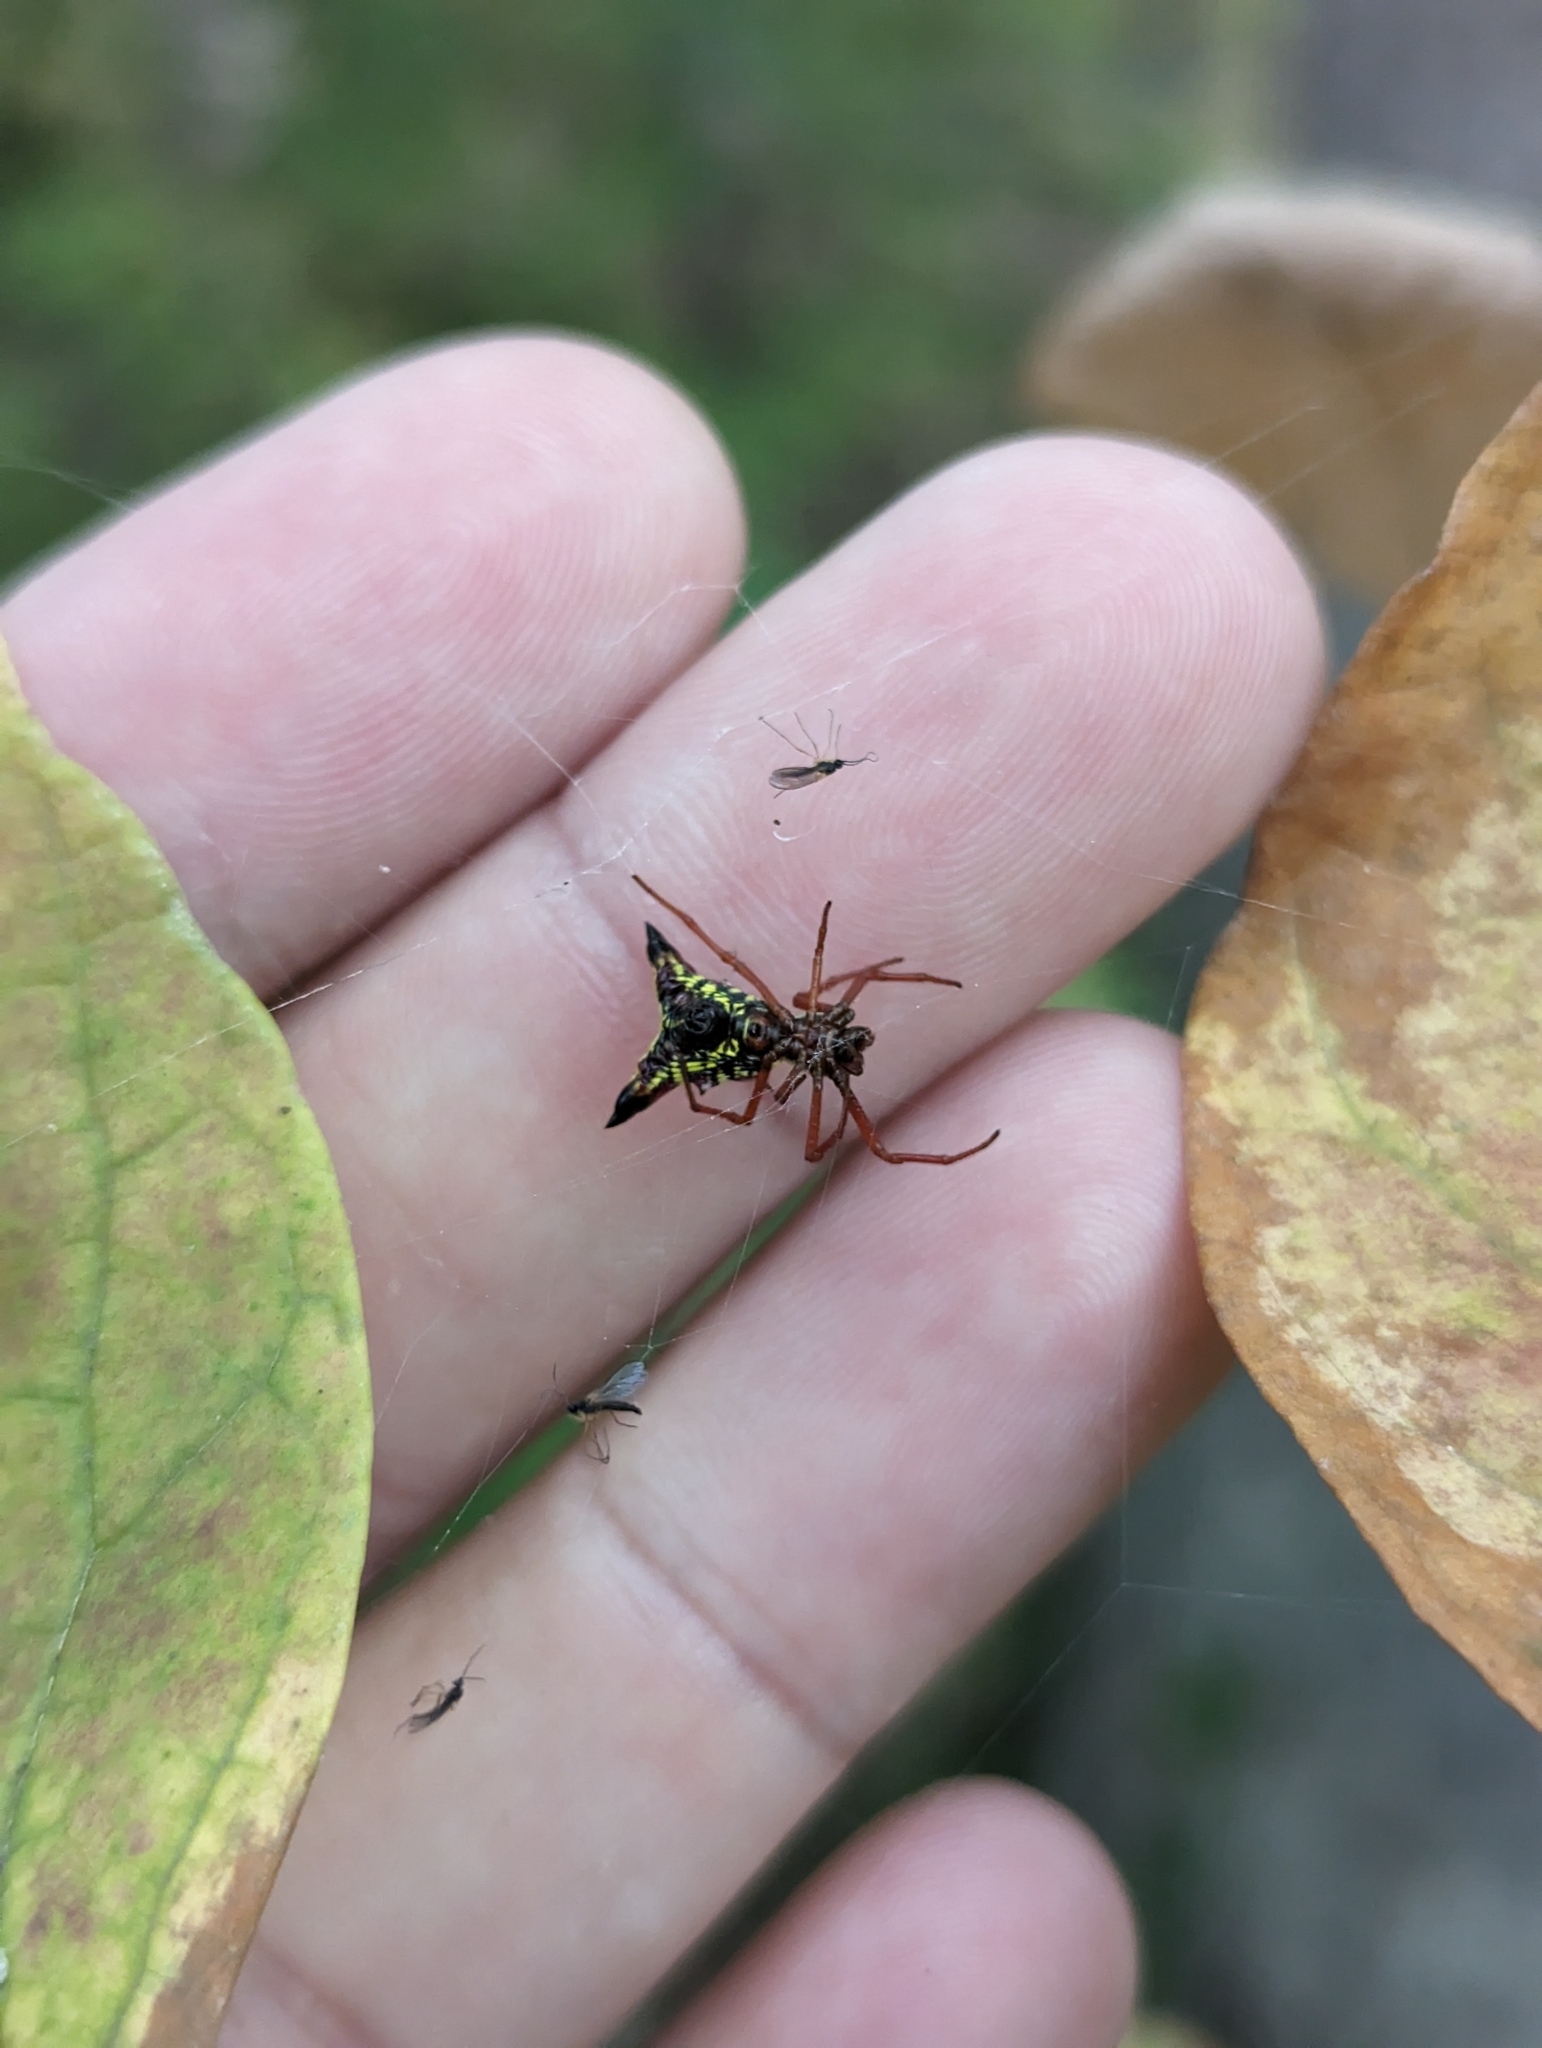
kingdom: Animalia
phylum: Arthropoda
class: Arachnida
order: Araneae
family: Araneidae
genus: Micrathena
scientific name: Micrathena sagittata
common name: Orb weavers
